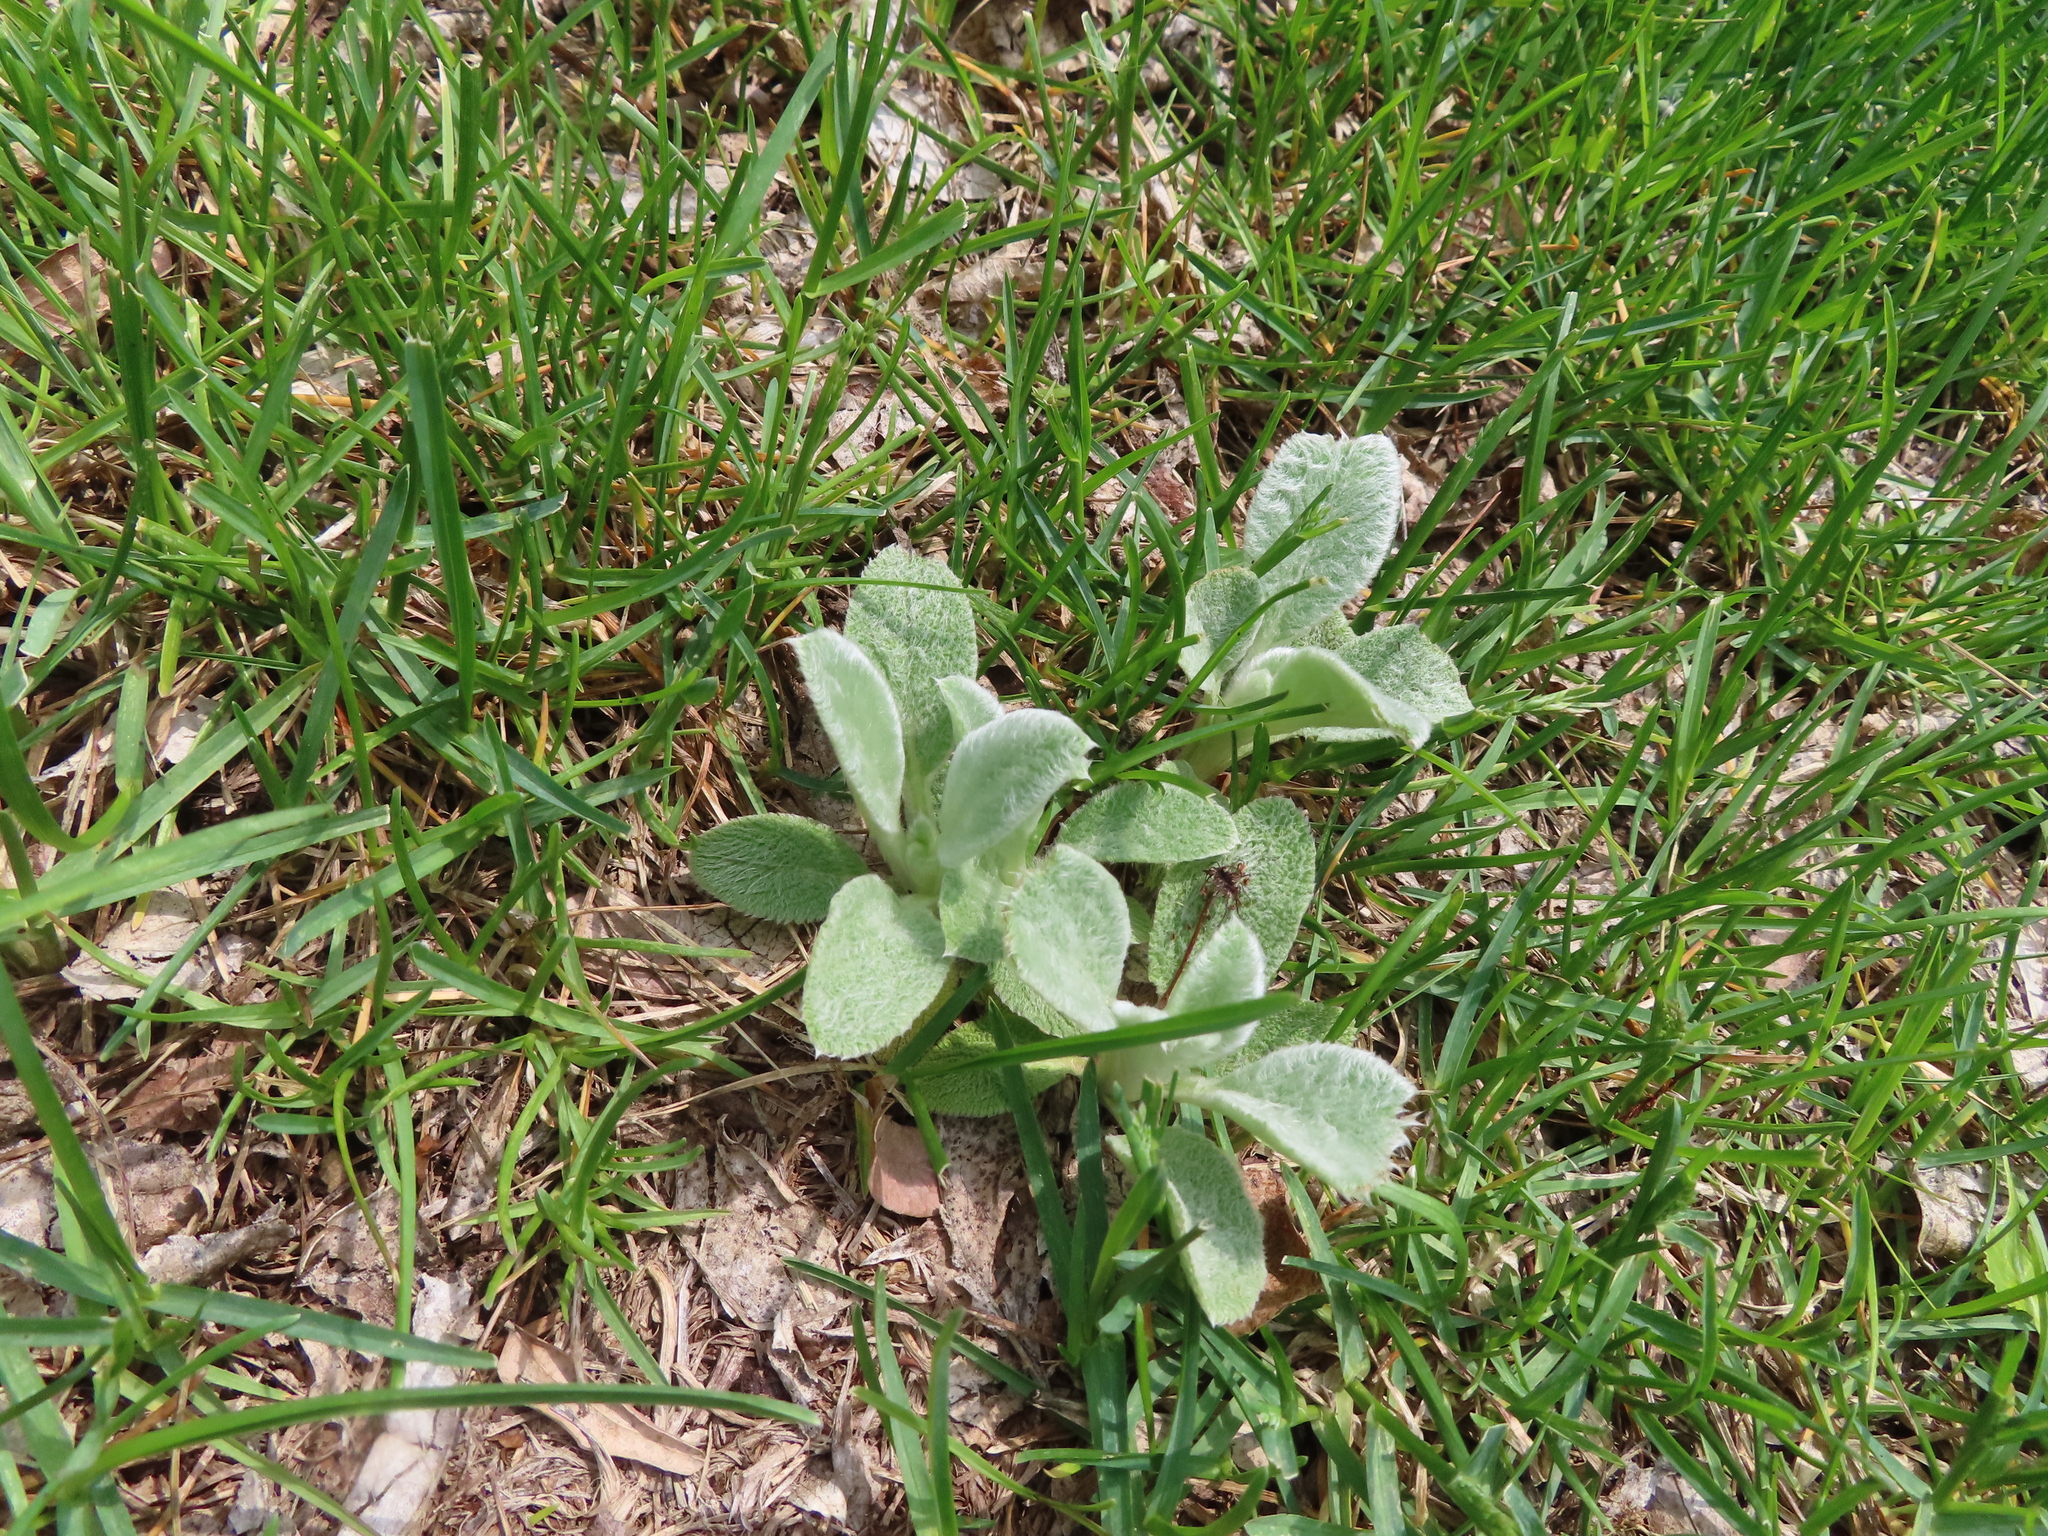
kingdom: Plantae
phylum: Tracheophyta
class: Magnoliopsida
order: Lamiales
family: Lamiaceae
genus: Stachys
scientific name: Stachys byzantina
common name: Lamb's-ear
